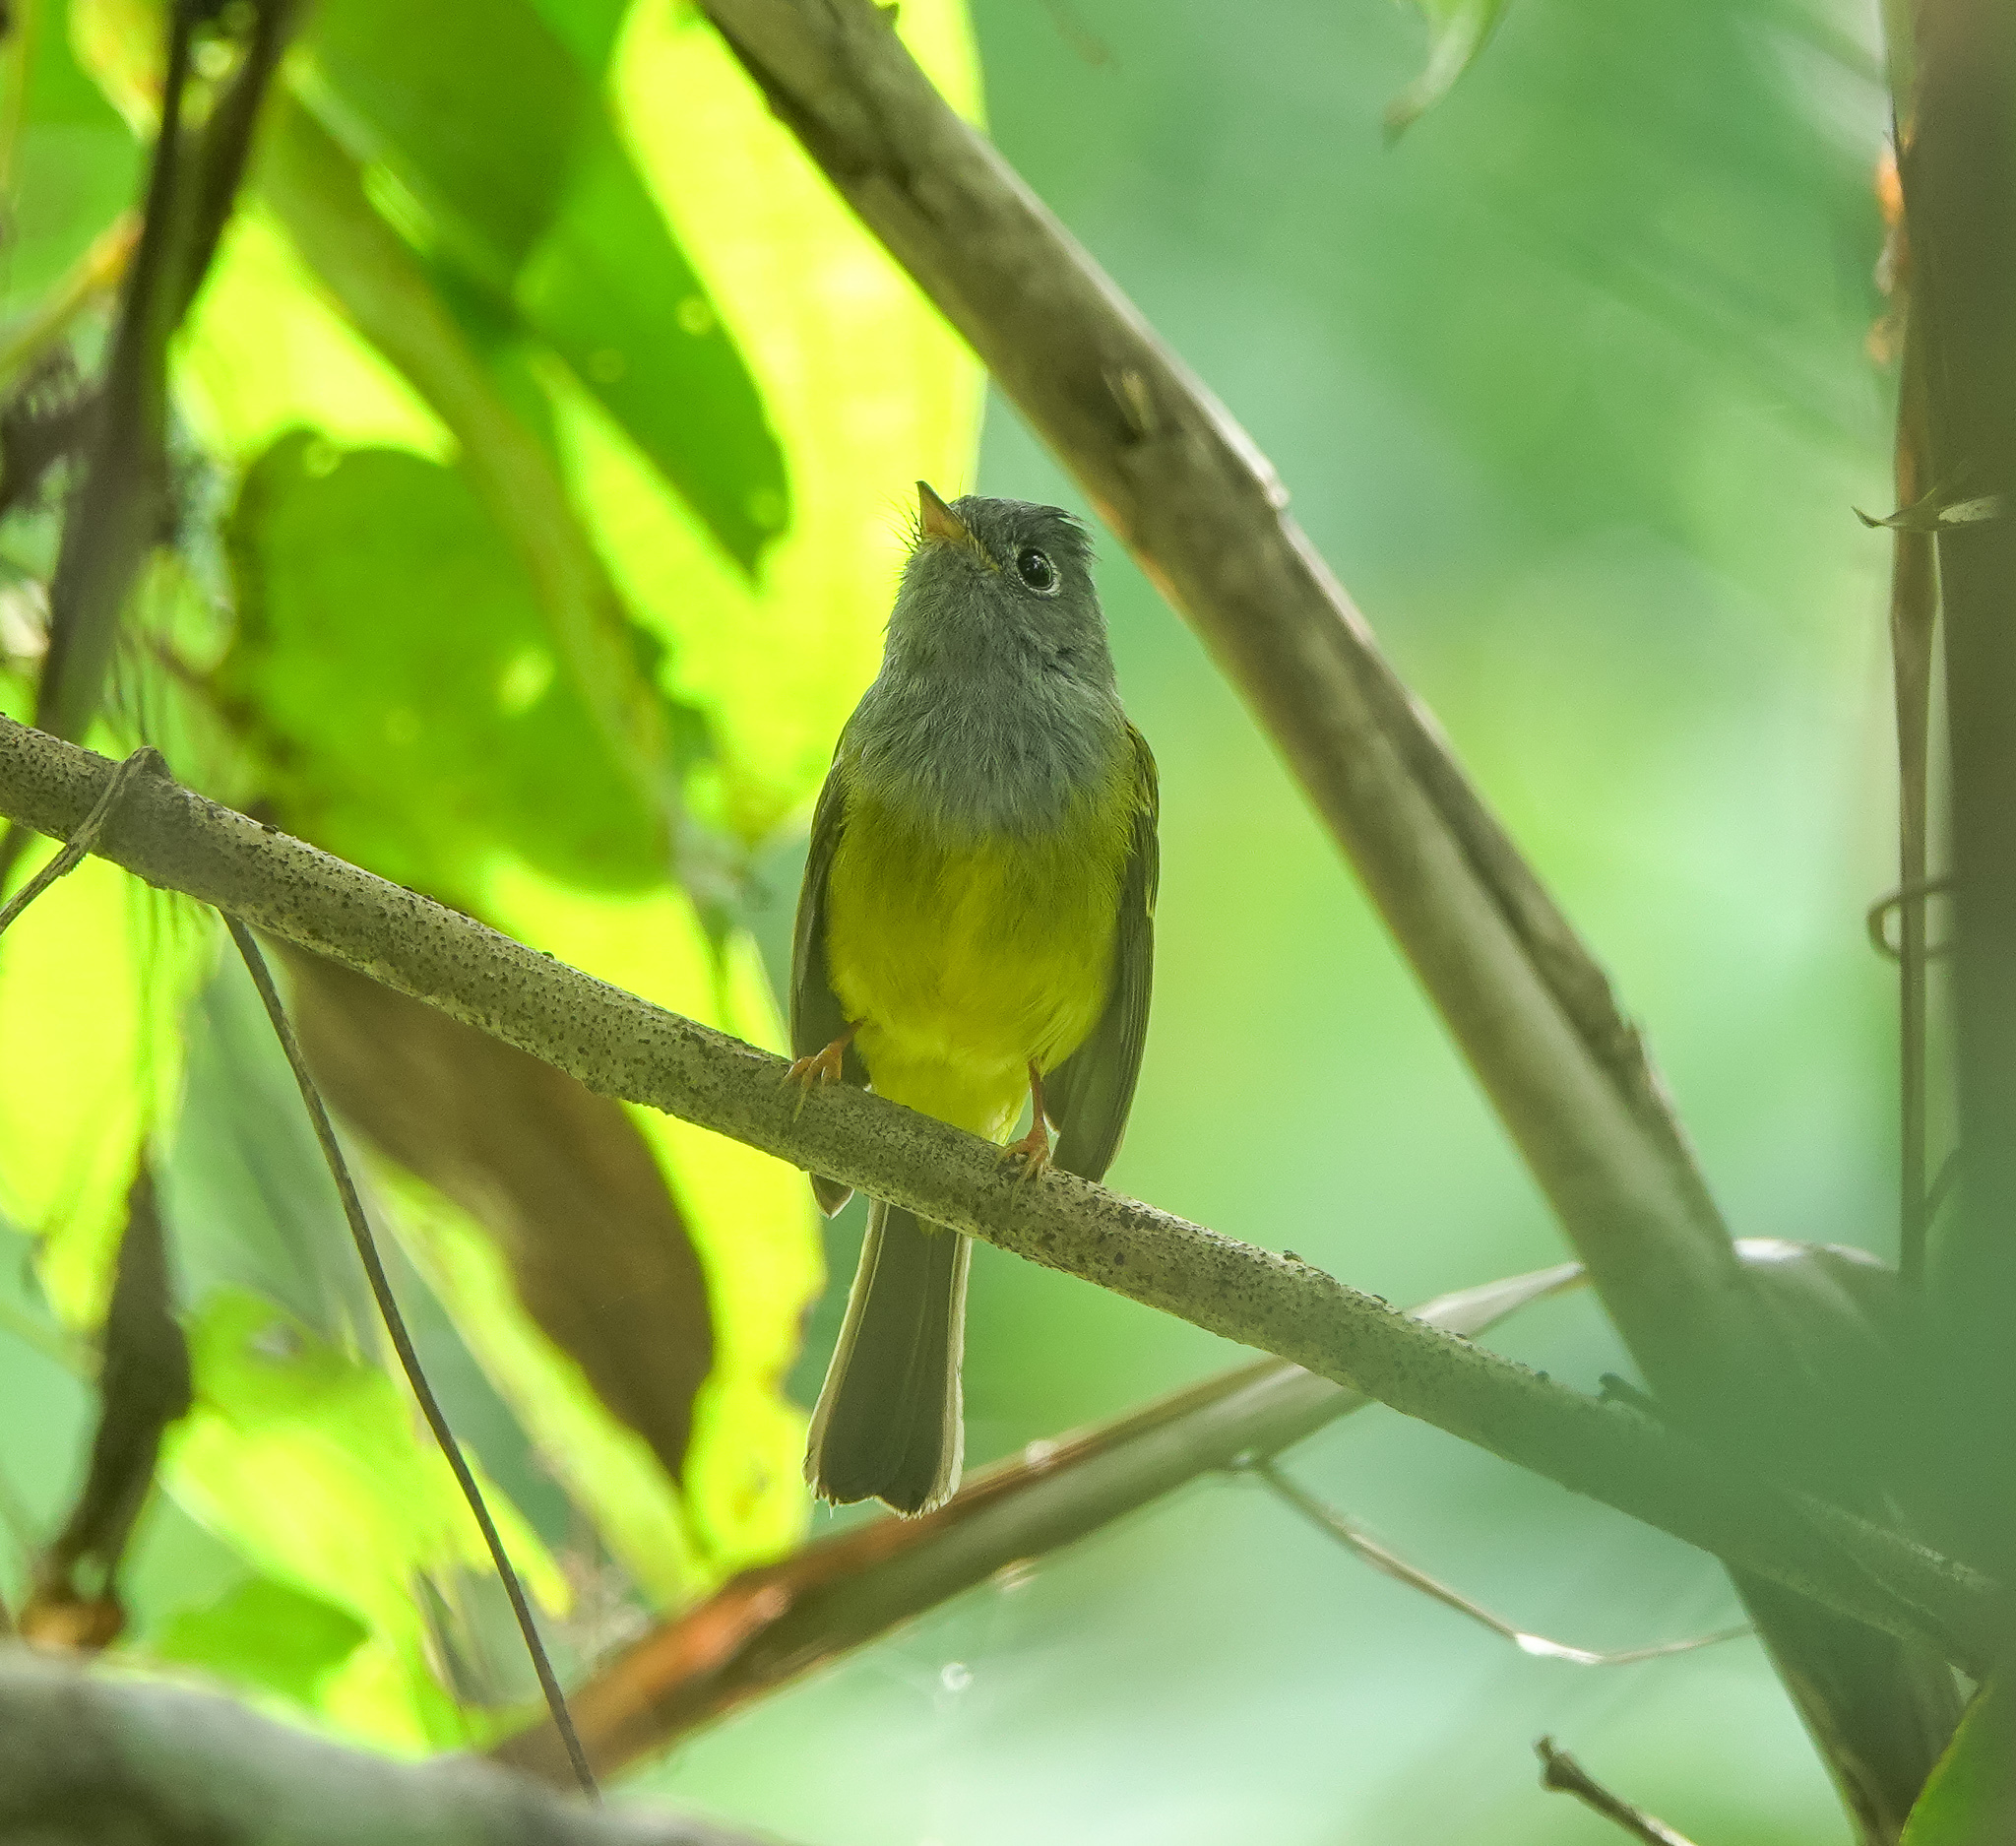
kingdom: Animalia
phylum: Chordata
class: Aves
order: Passeriformes
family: Stenostiridae
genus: Culicicapa
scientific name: Culicicapa ceylonensis
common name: Grey-headed canary-flycatcher
